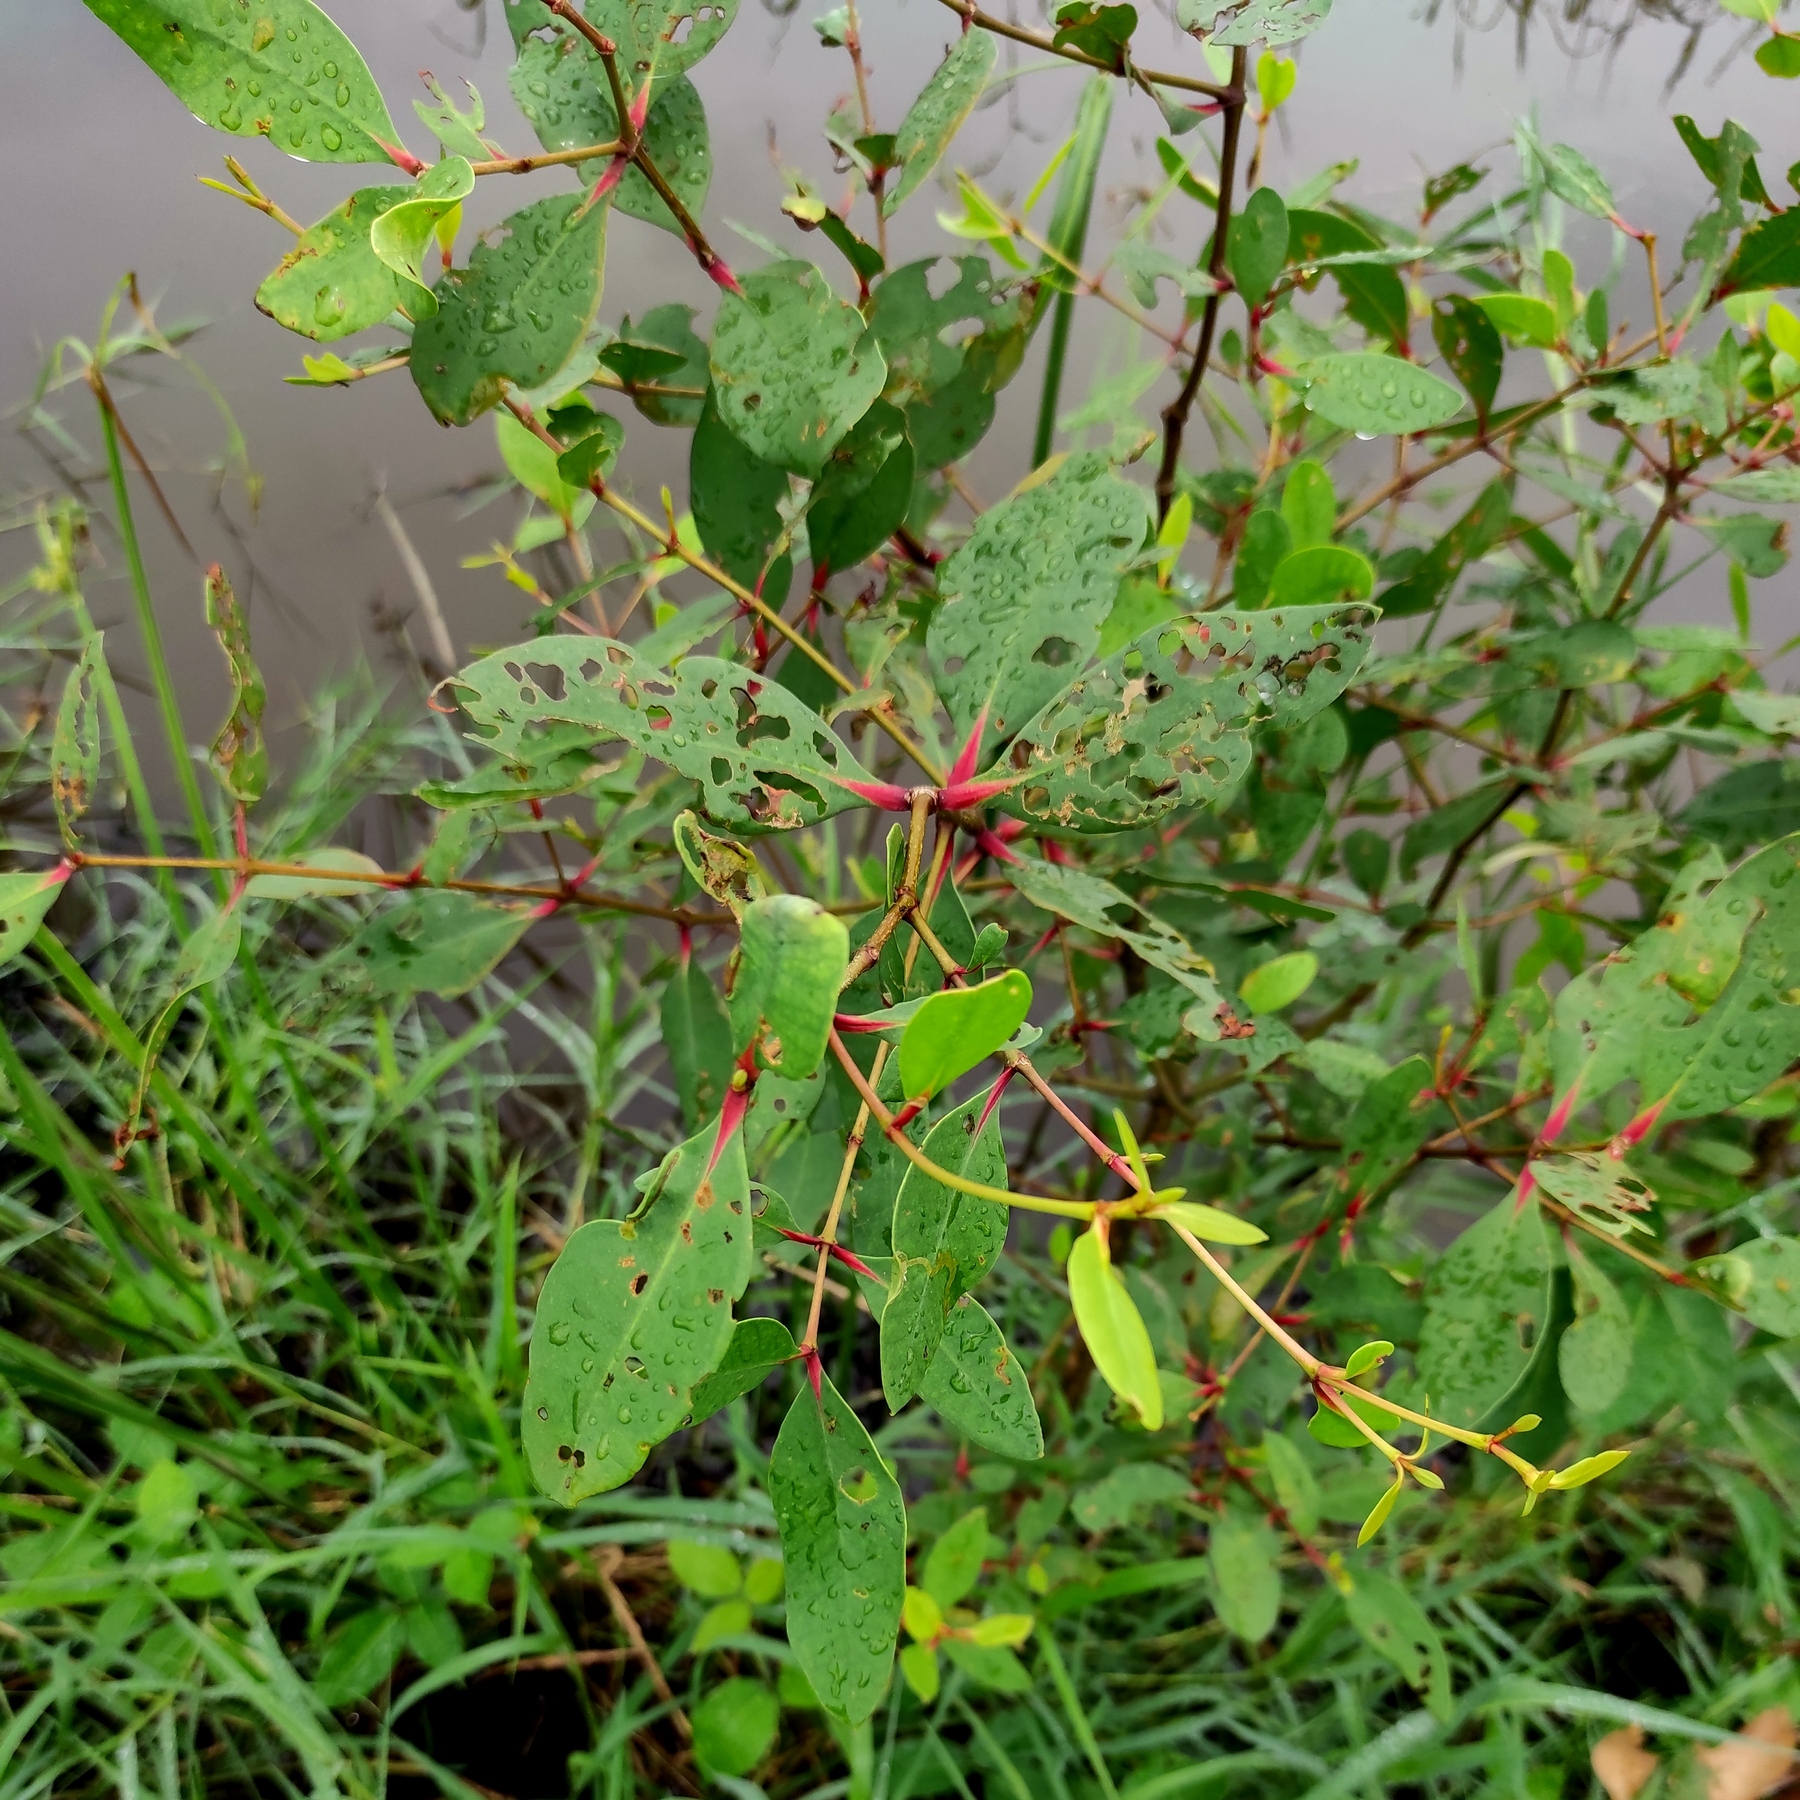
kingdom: Plantae
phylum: Tracheophyta
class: Magnoliopsida
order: Myrtales
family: Lythraceae
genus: Sonneratia
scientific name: Sonneratia caseolaris
